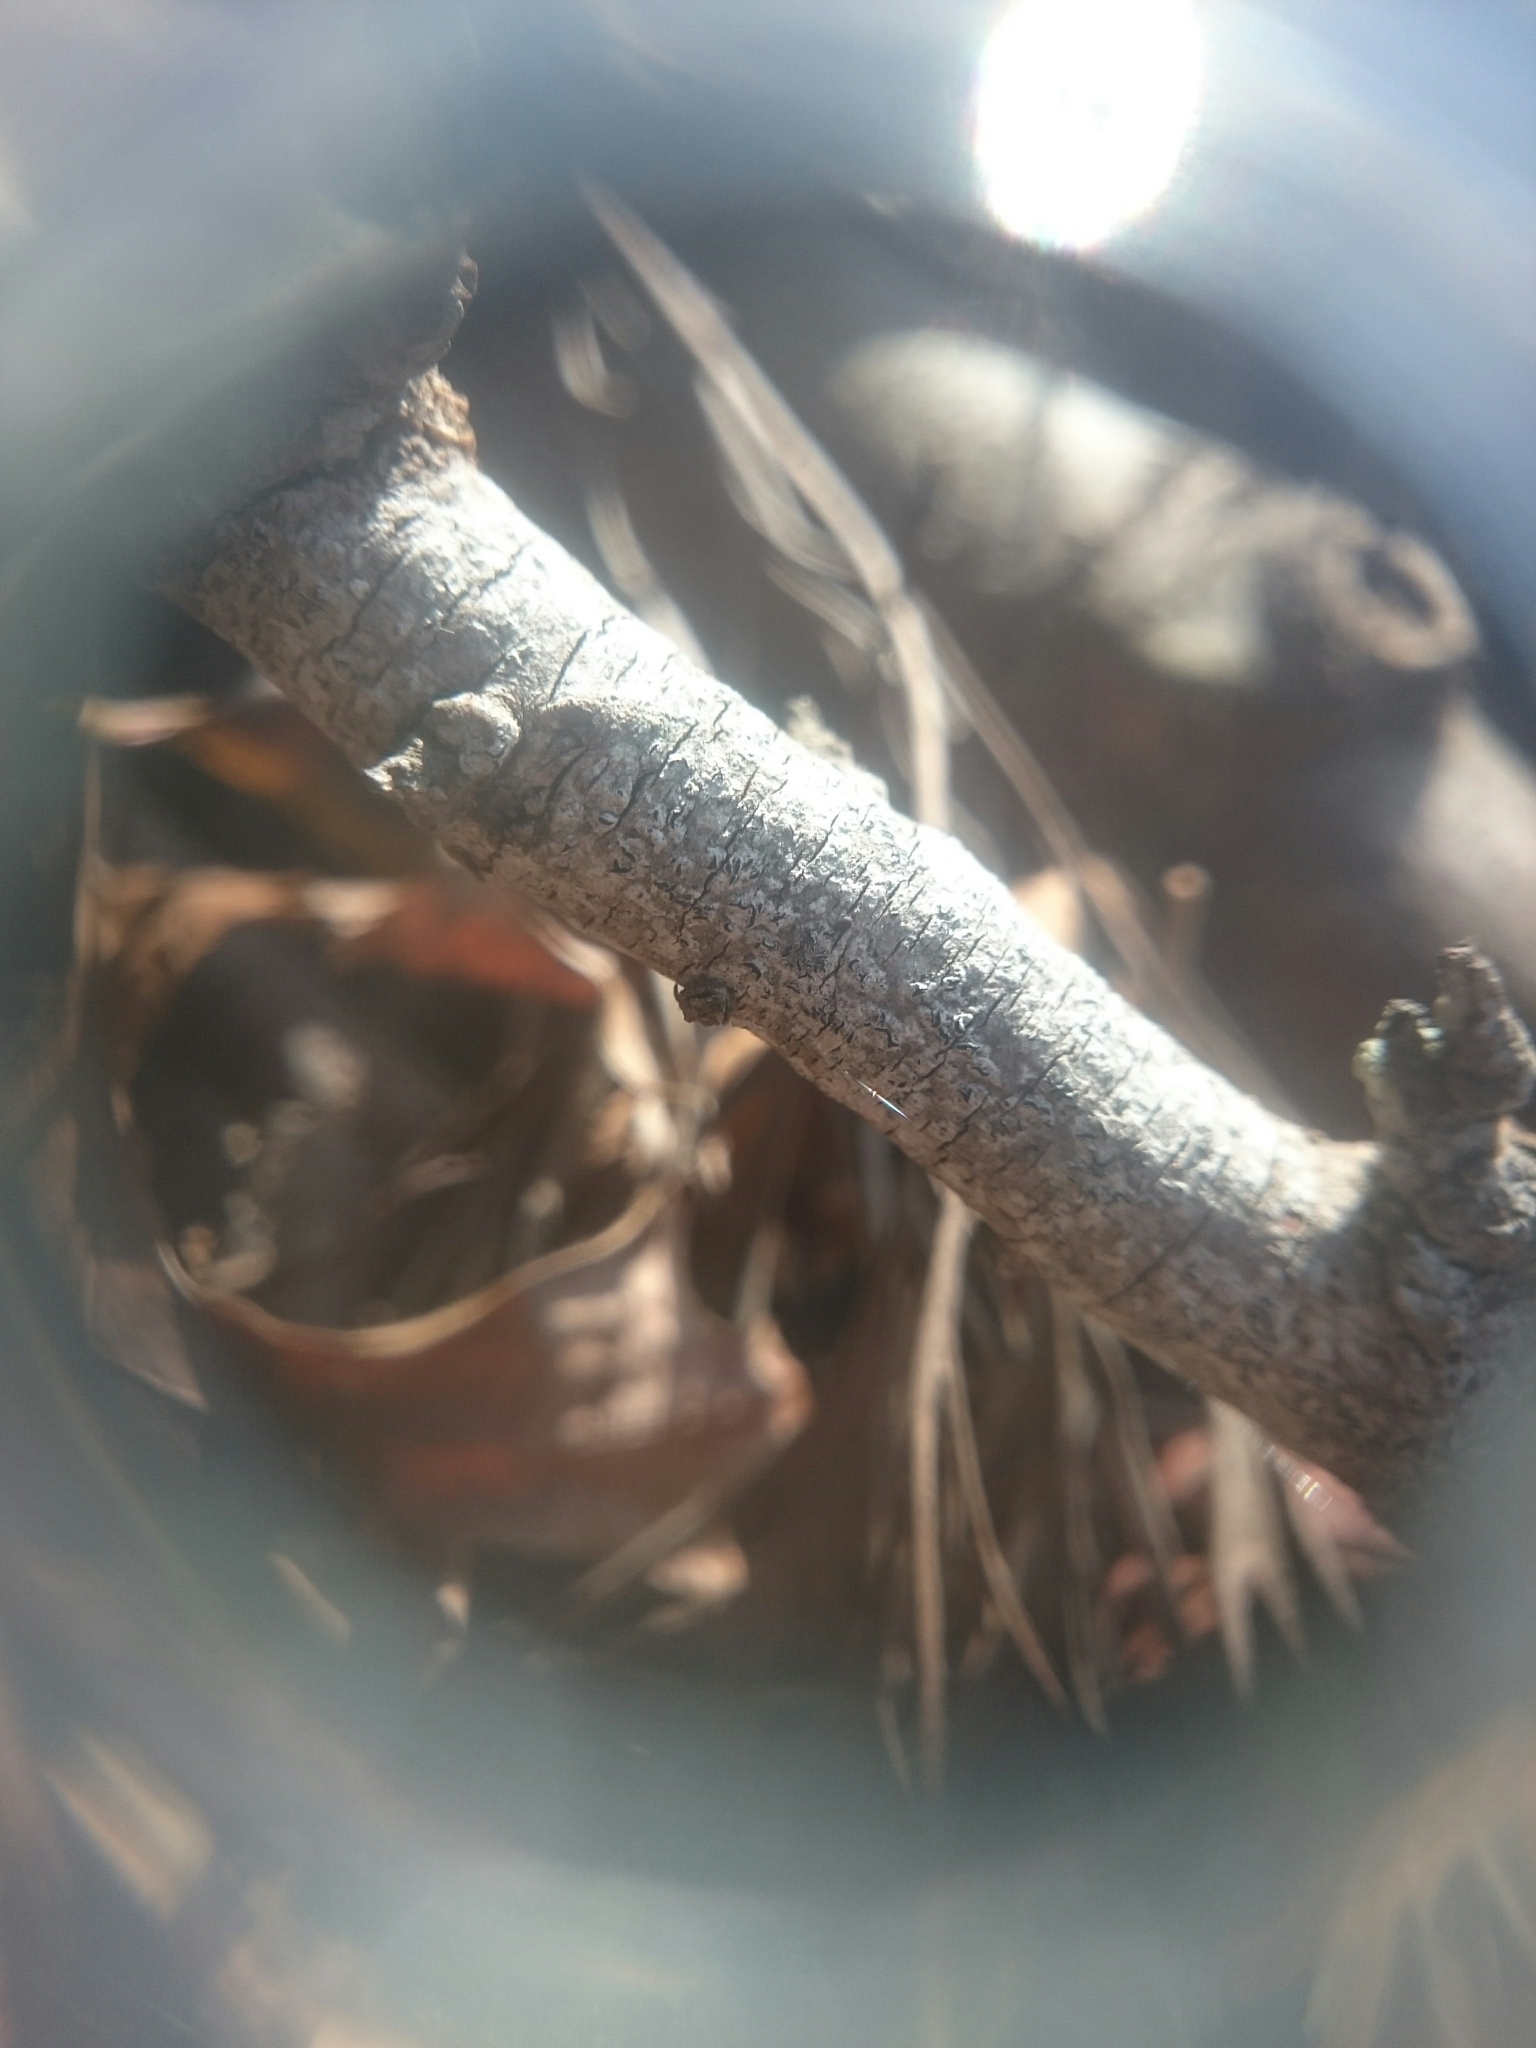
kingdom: Animalia
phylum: Arthropoda
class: Arachnida
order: Araneae
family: Araneidae
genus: Eriophora
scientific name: Eriophora pustulosa
